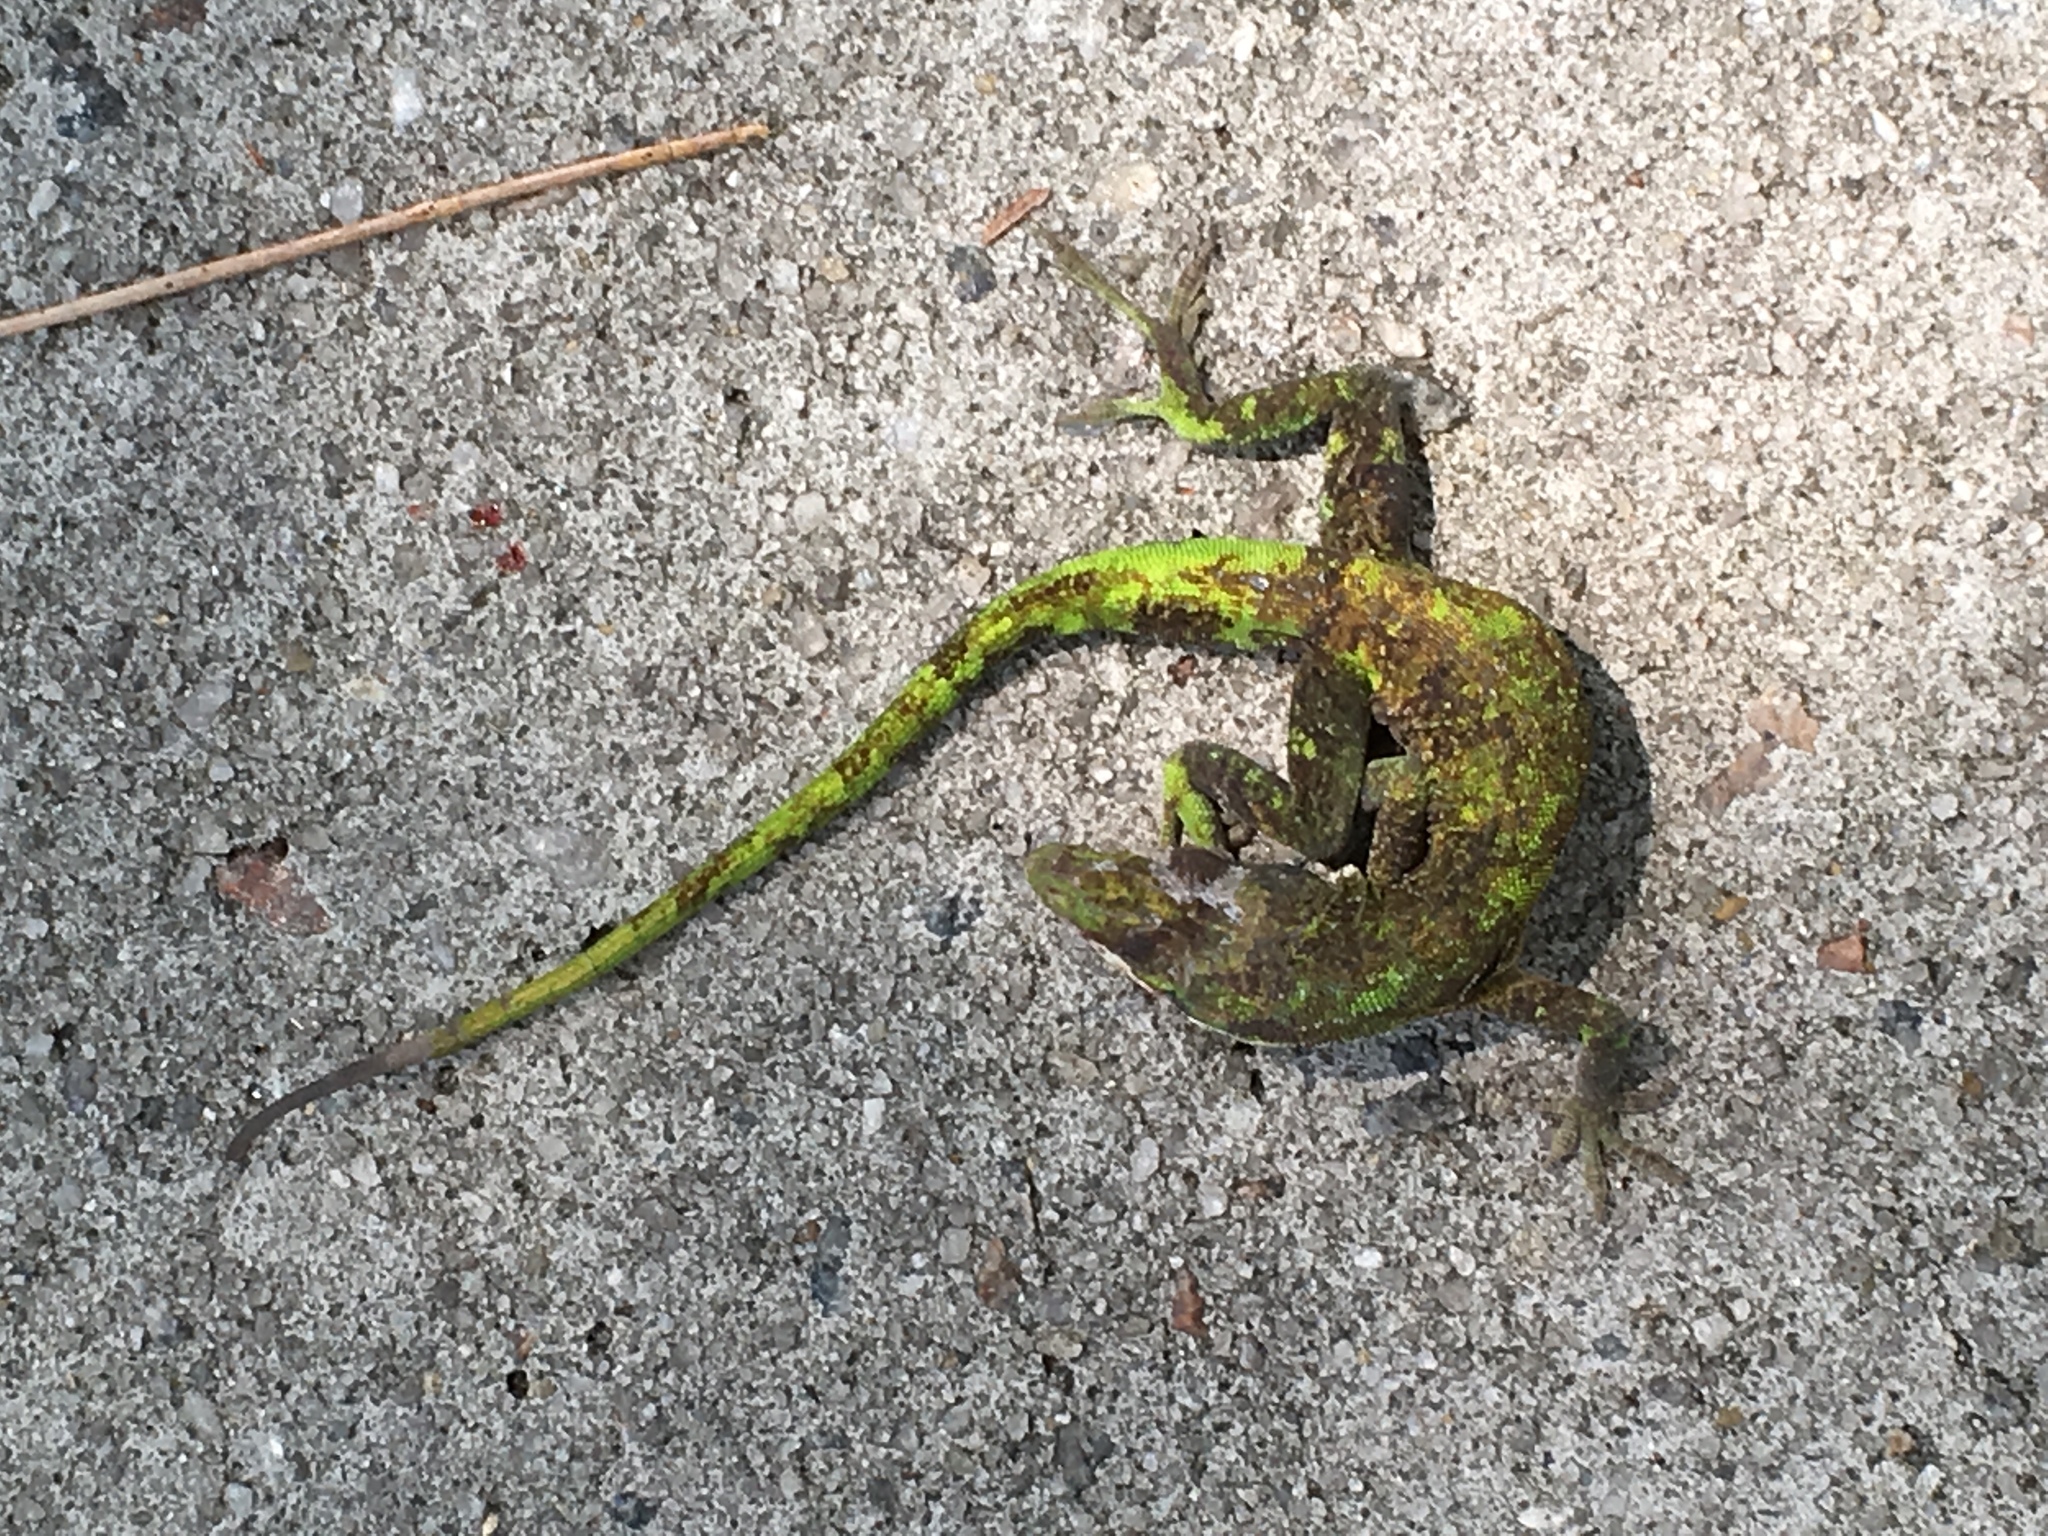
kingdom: Animalia
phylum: Chordata
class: Squamata
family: Dactyloidae
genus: Anolis
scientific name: Anolis carolinensis
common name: Green anole
